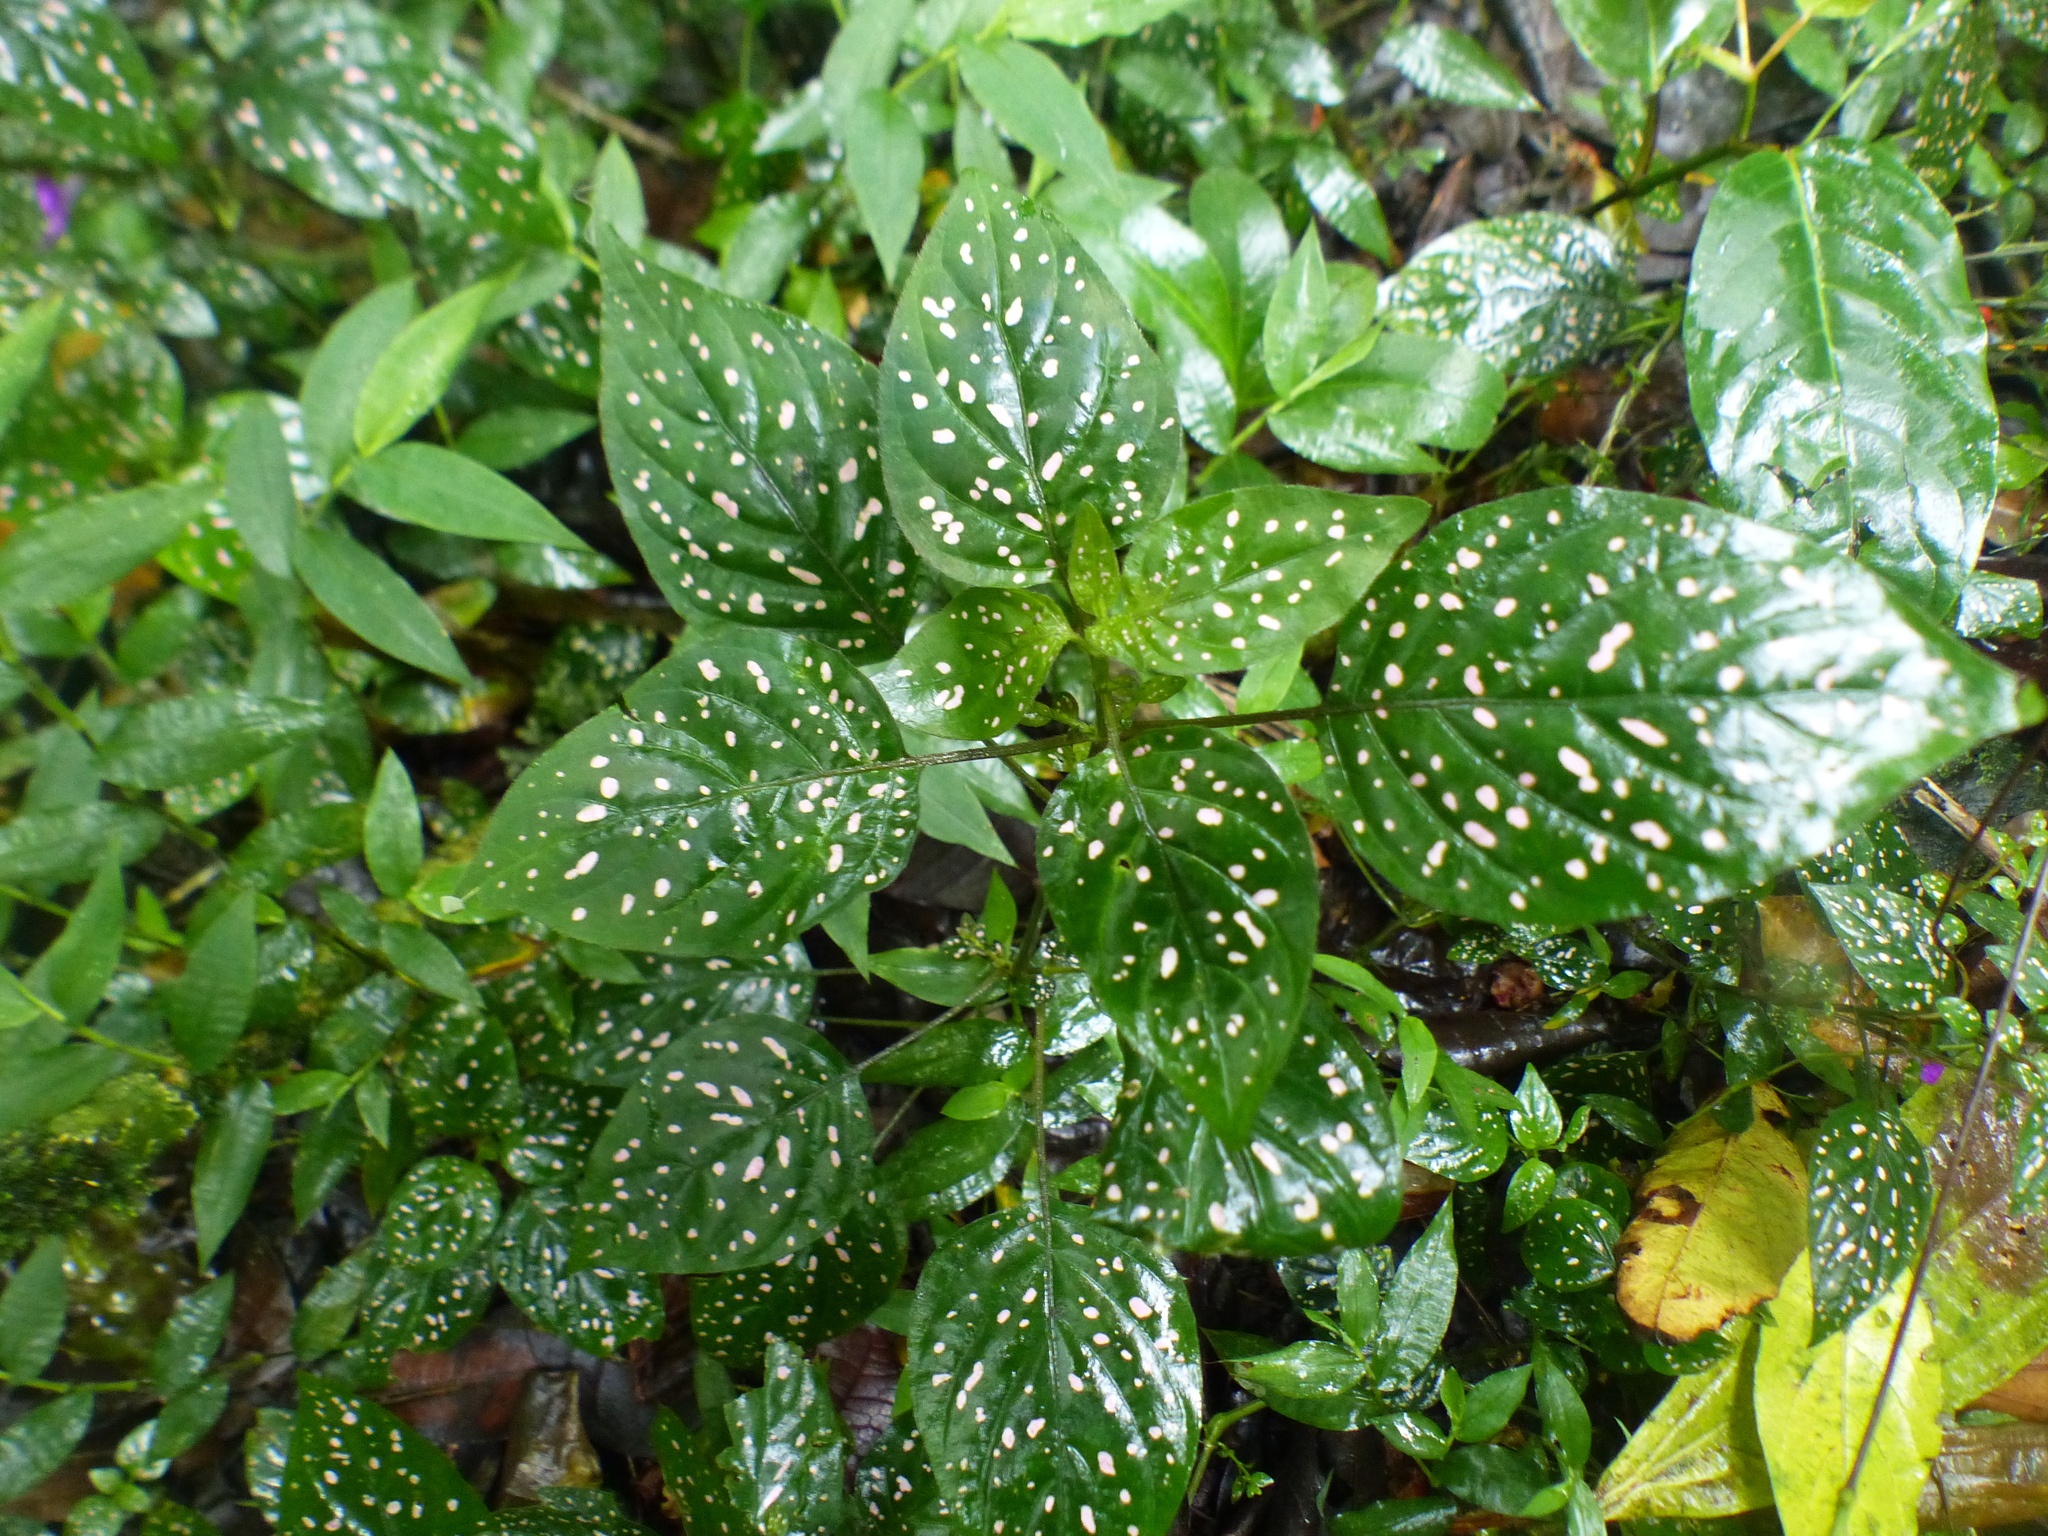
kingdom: Plantae
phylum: Tracheophyta
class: Magnoliopsida
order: Lamiales
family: Acanthaceae
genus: Hypoestes
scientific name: Hypoestes phyllostachya
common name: Polkadot-plant
